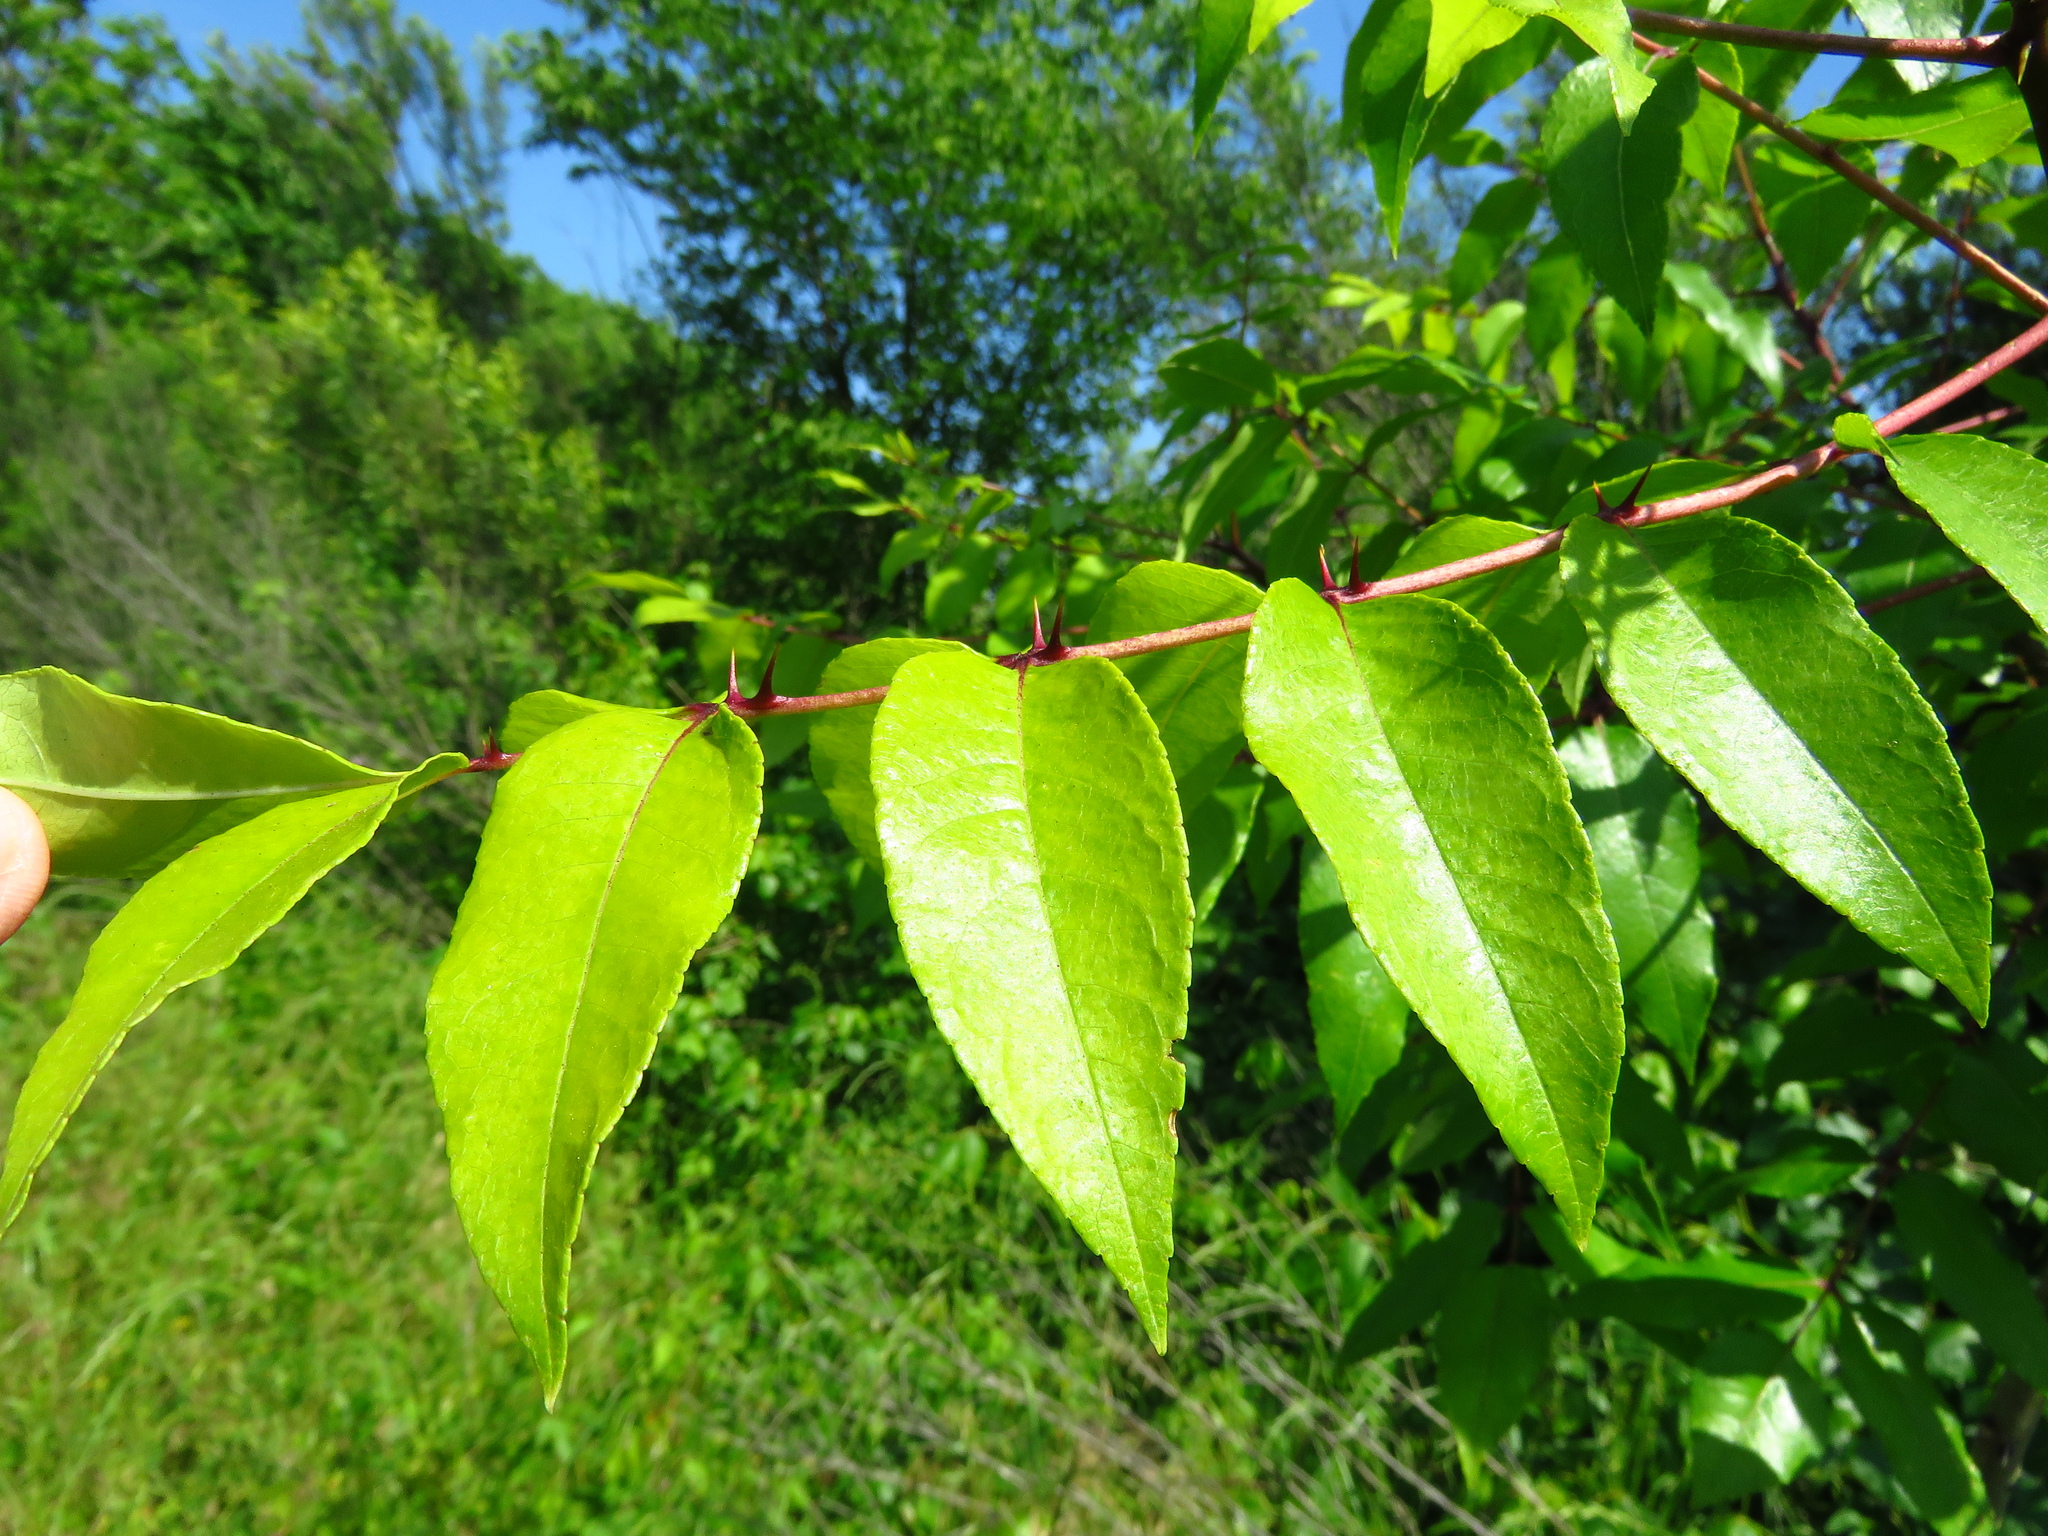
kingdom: Plantae
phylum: Tracheophyta
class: Magnoliopsida
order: Sapindales
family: Rutaceae
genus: Zanthoxylum
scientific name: Zanthoxylum clava-herculis
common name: Hercules'-club
